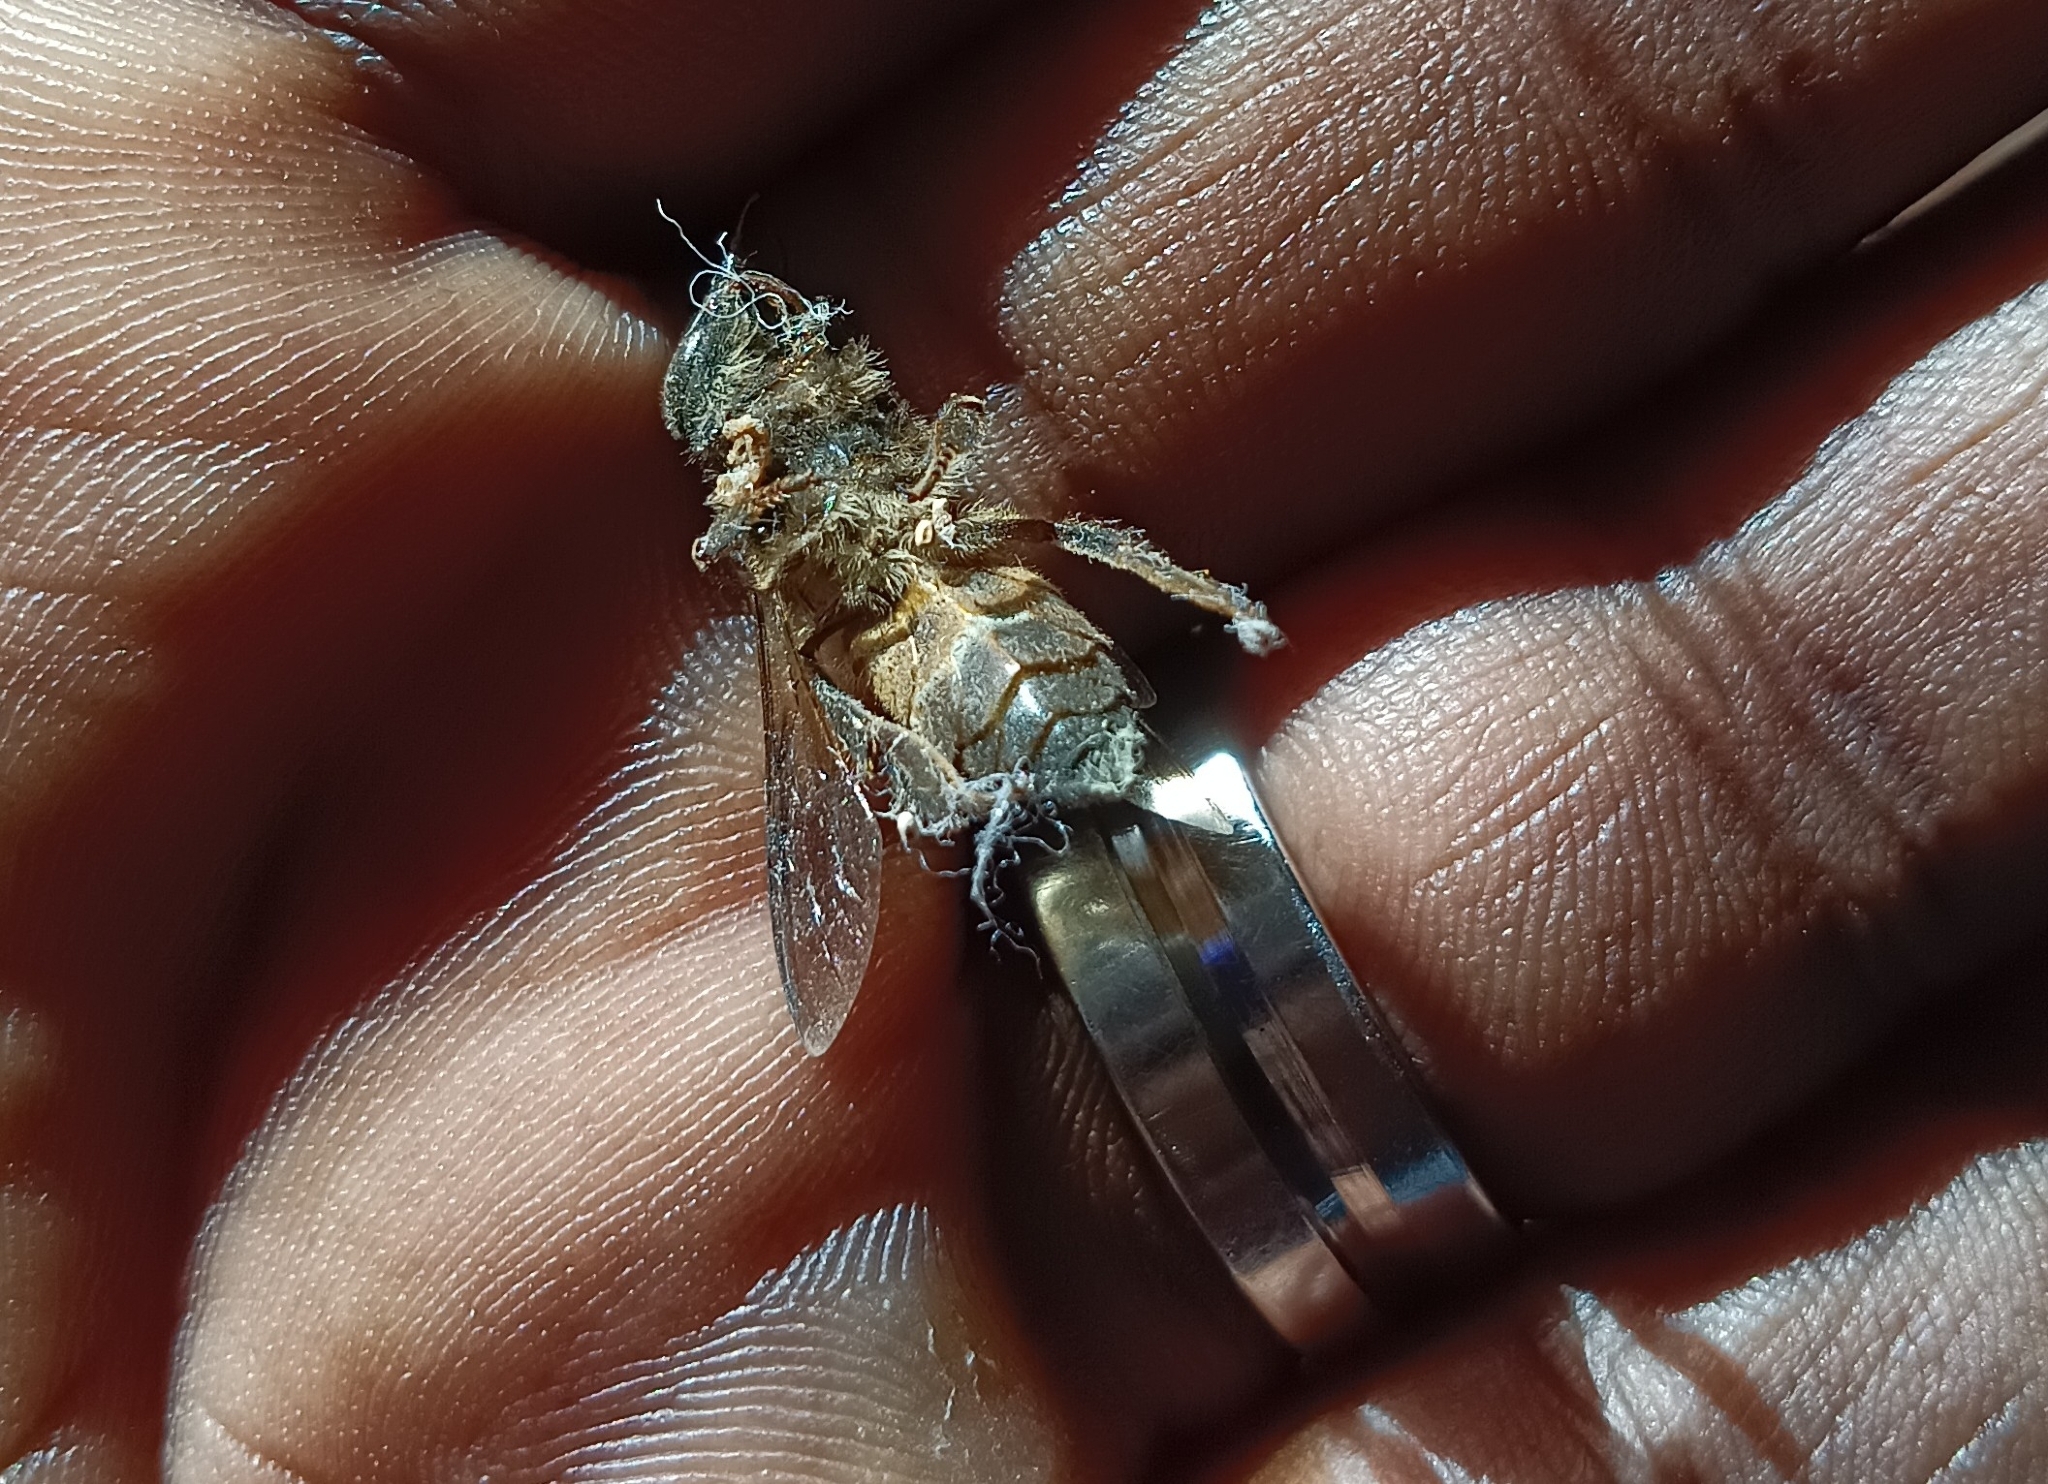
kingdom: Animalia
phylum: Arthropoda
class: Insecta
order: Hymenoptera
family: Apidae
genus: Apis
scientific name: Apis dorsata
